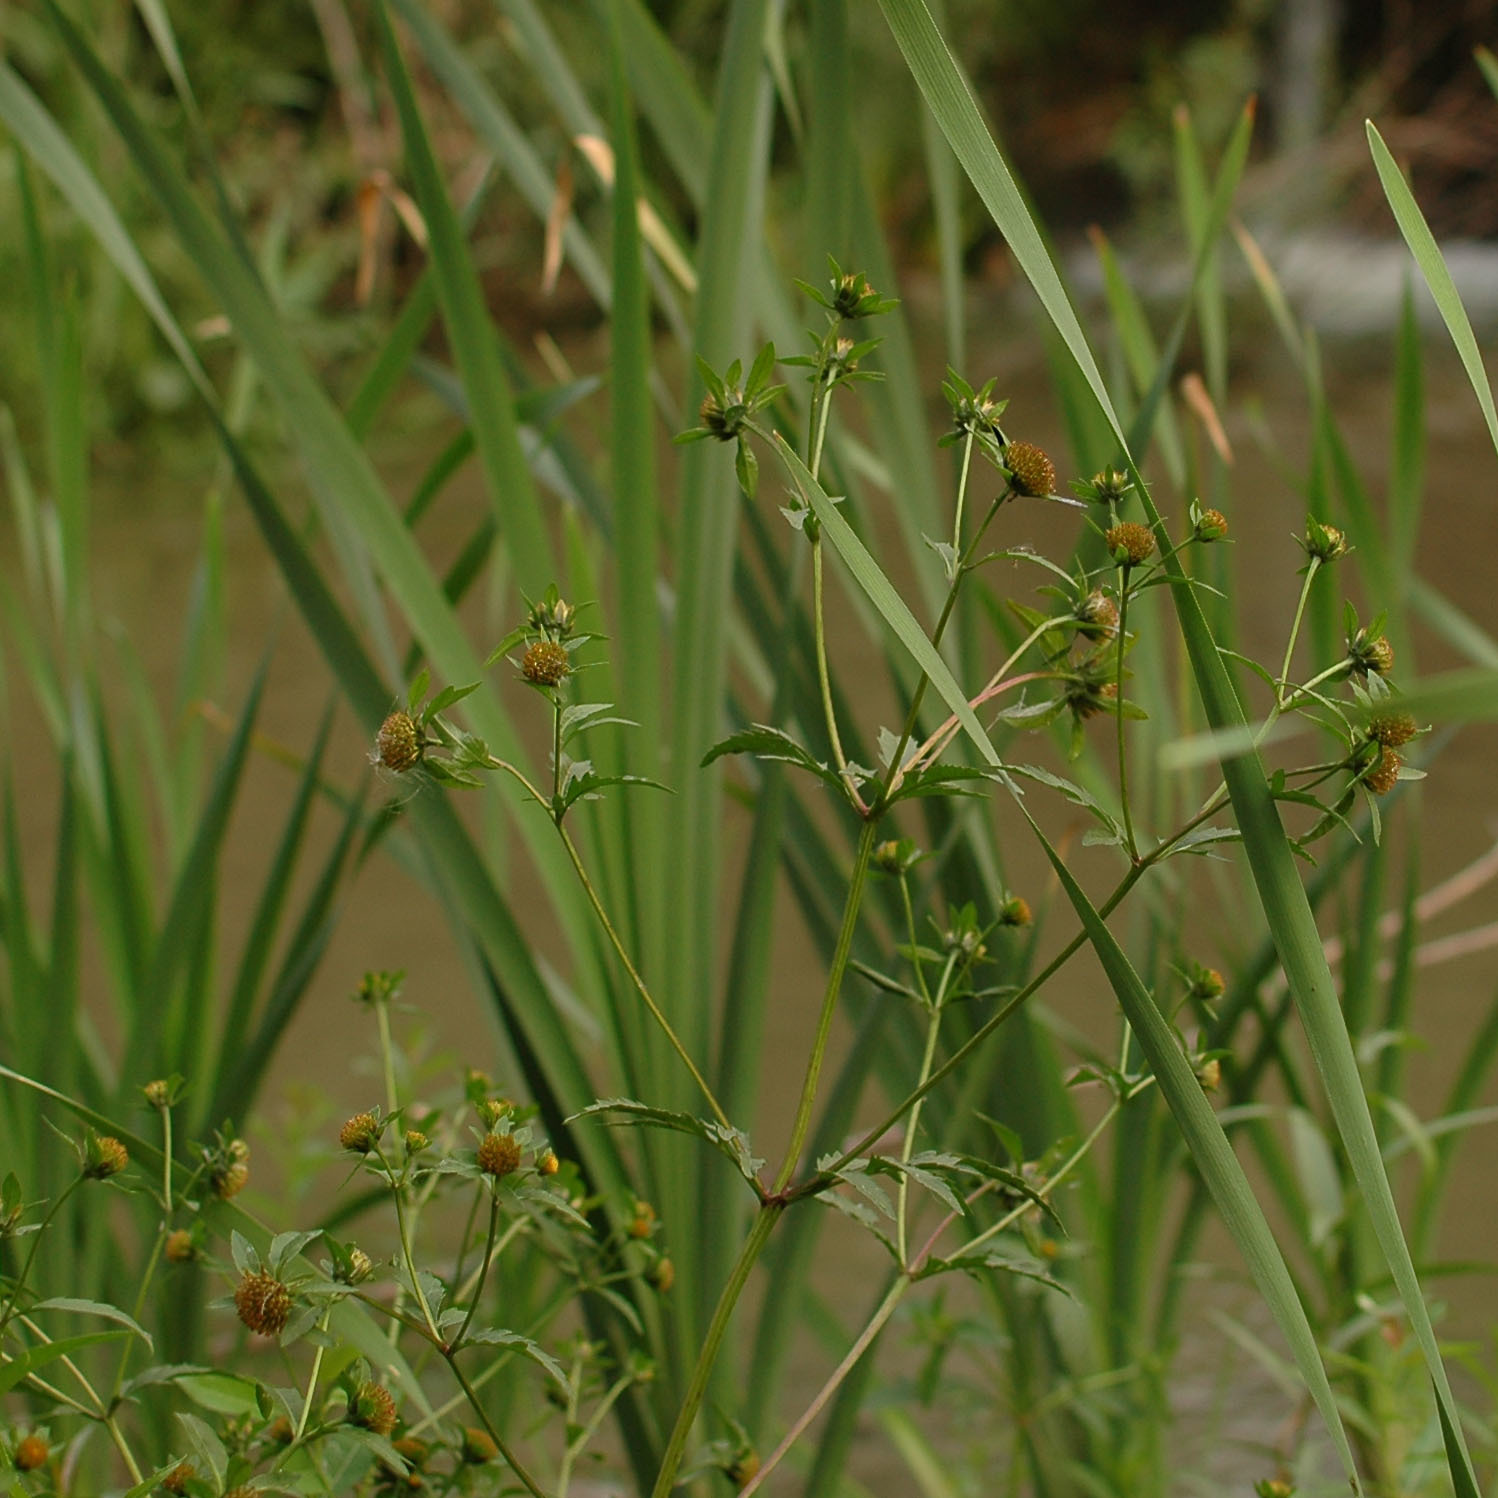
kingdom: Plantae
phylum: Tracheophyta
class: Magnoliopsida
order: Asterales
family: Asteraceae
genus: Bidens
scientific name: Bidens tripartita
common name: Trifid bur-marigold
